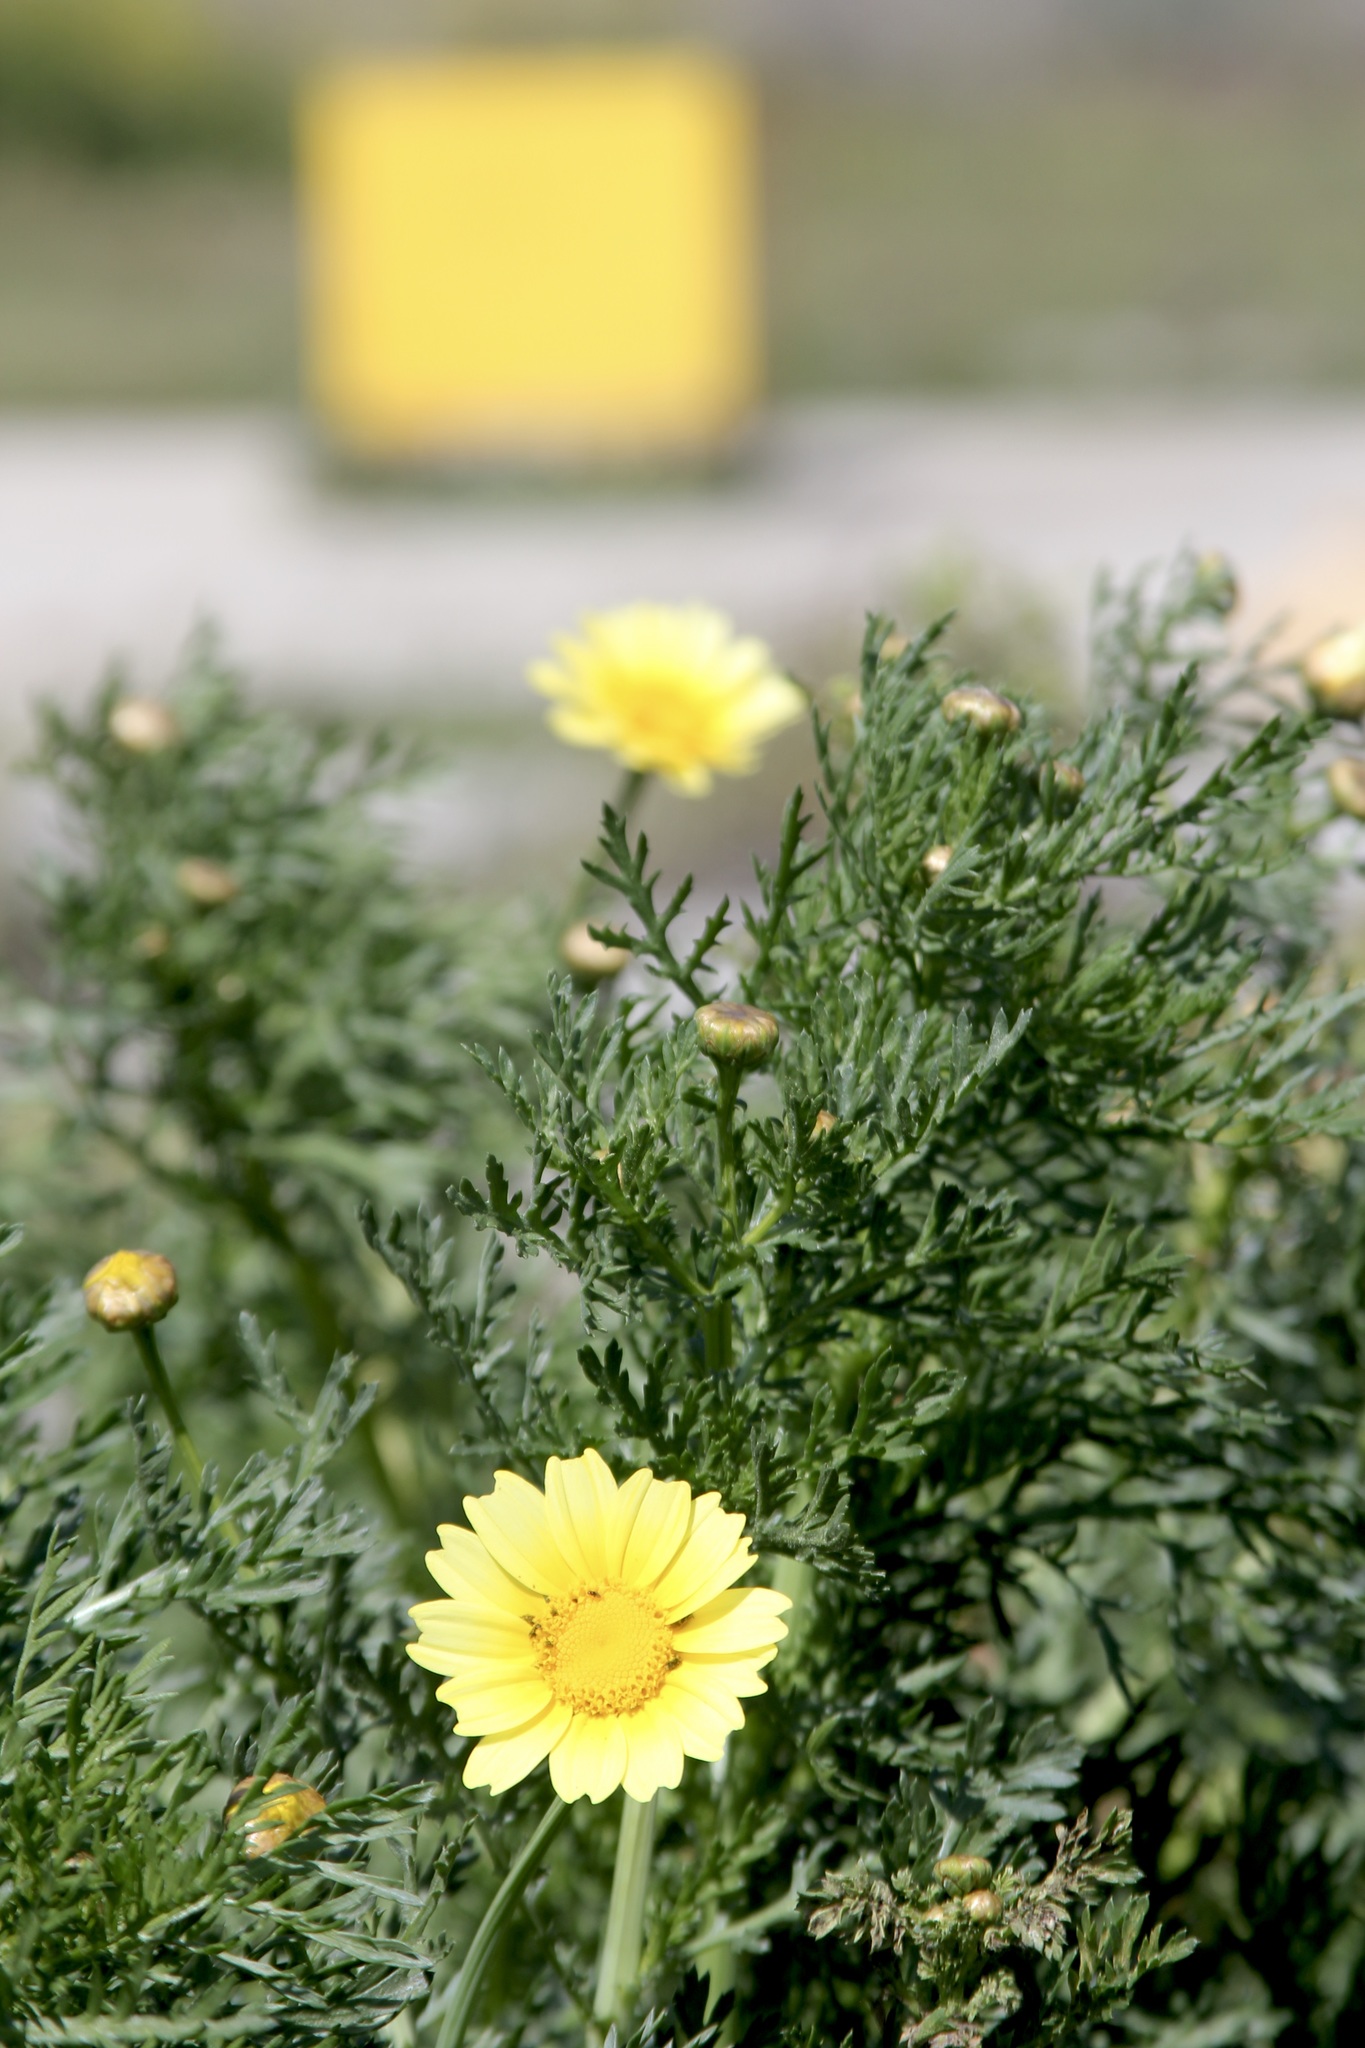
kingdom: Plantae
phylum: Tracheophyta
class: Magnoliopsida
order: Asterales
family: Asteraceae
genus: Glebionis
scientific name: Glebionis coronaria
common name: Crowndaisy
